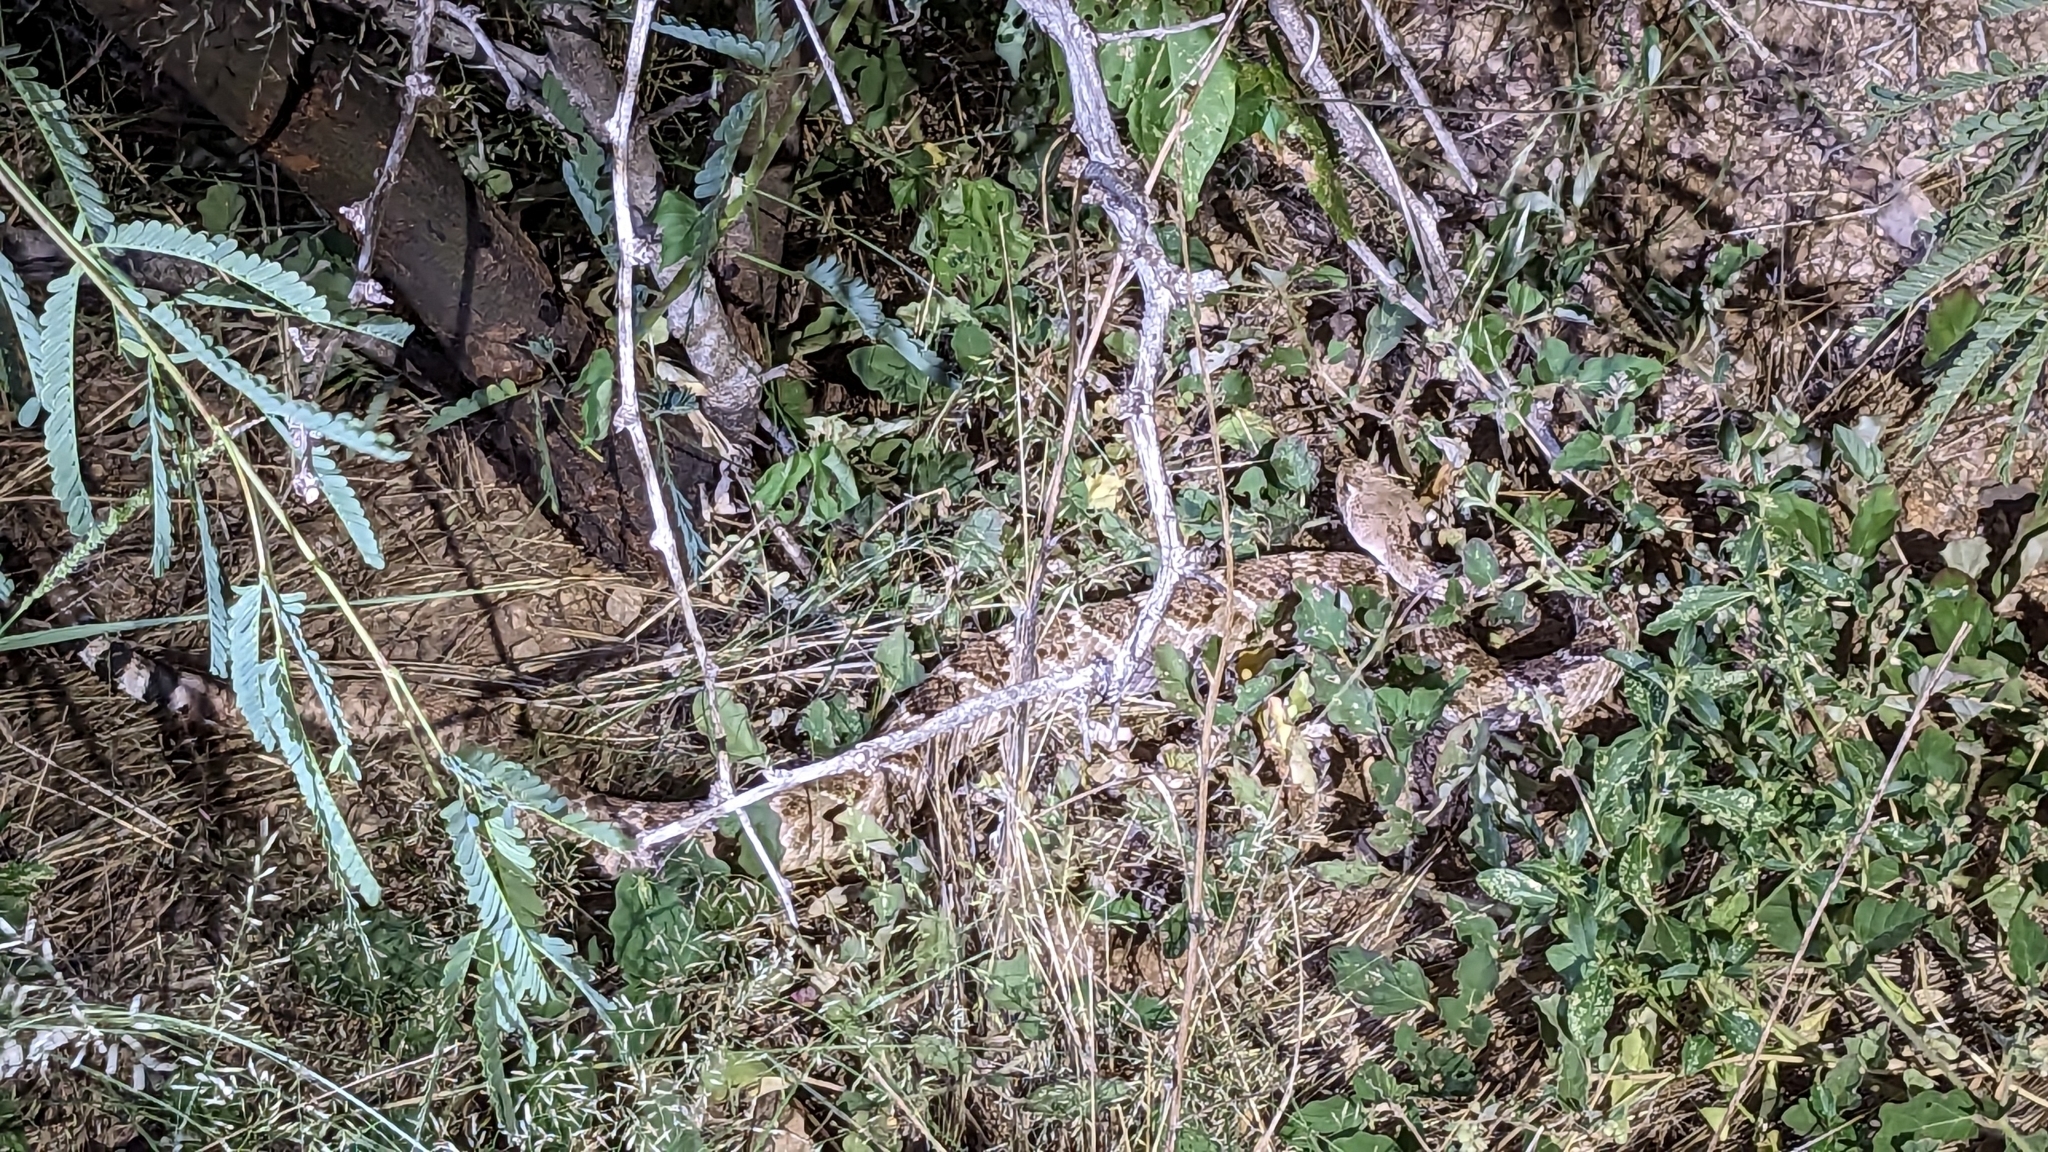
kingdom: Animalia
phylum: Chordata
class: Squamata
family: Viperidae
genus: Crotalus
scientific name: Crotalus atrox
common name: Western diamond-backed rattlesnake
